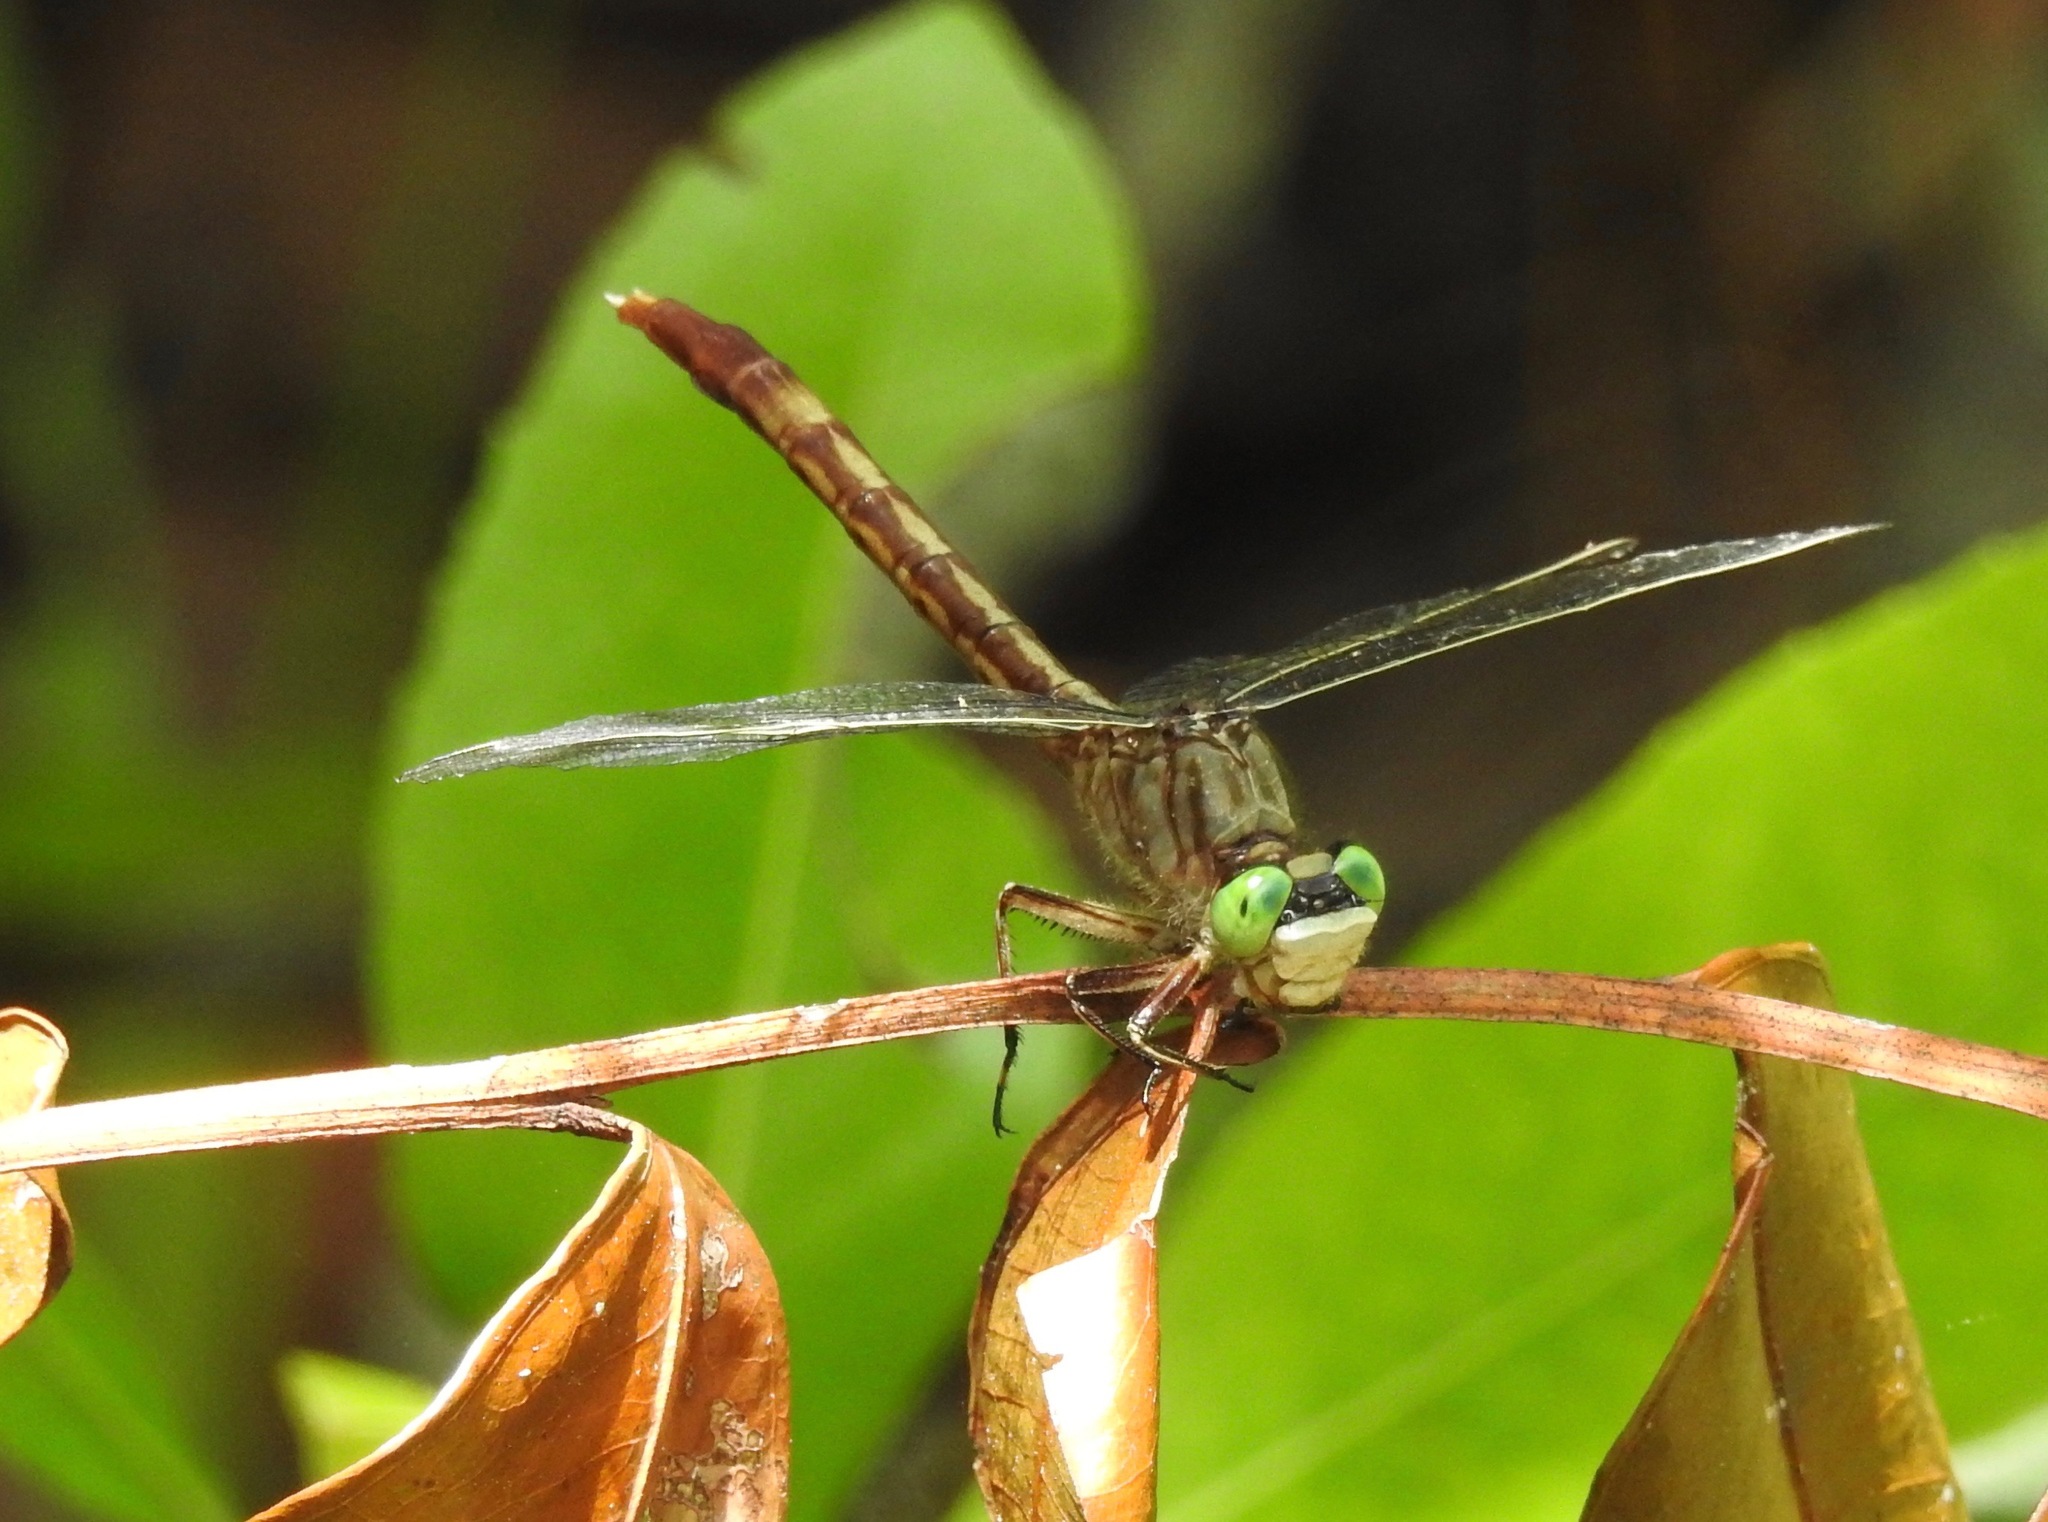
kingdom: Animalia
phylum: Arthropoda
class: Insecta
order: Odonata
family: Gomphidae
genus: Arigomphus
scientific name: Arigomphus pallidus
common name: Gray-green clubtail
